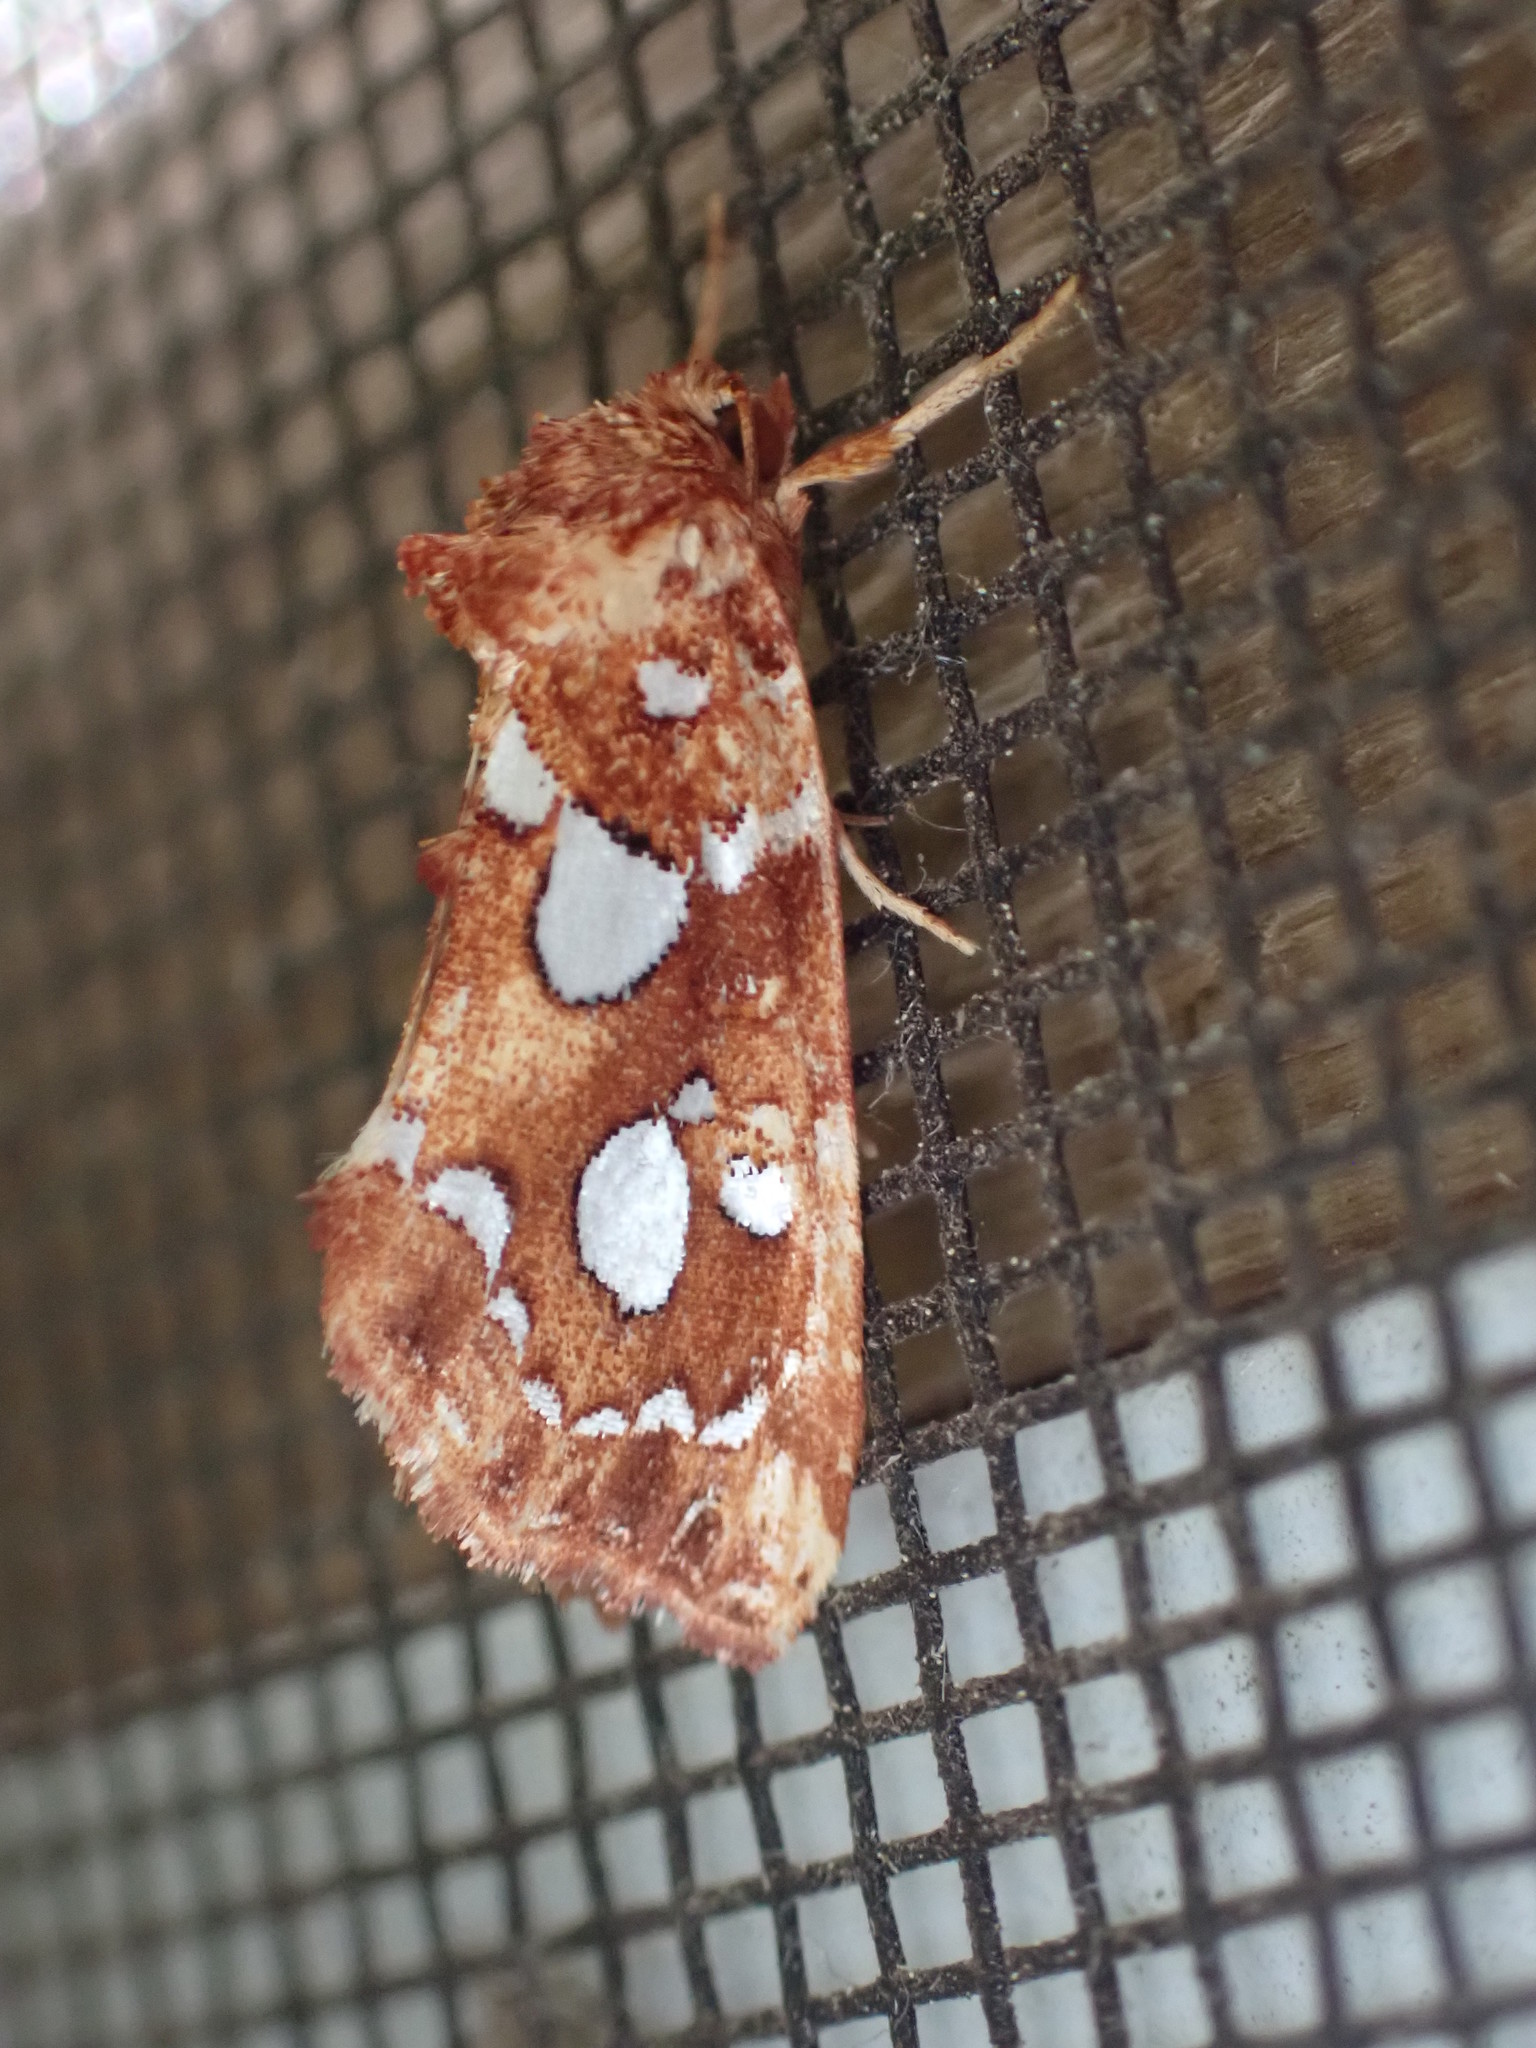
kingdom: Animalia
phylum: Arthropoda
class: Insecta
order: Lepidoptera
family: Noctuidae
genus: Callopistria
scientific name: Callopistria cordata
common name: Silver-spotted fern moth
